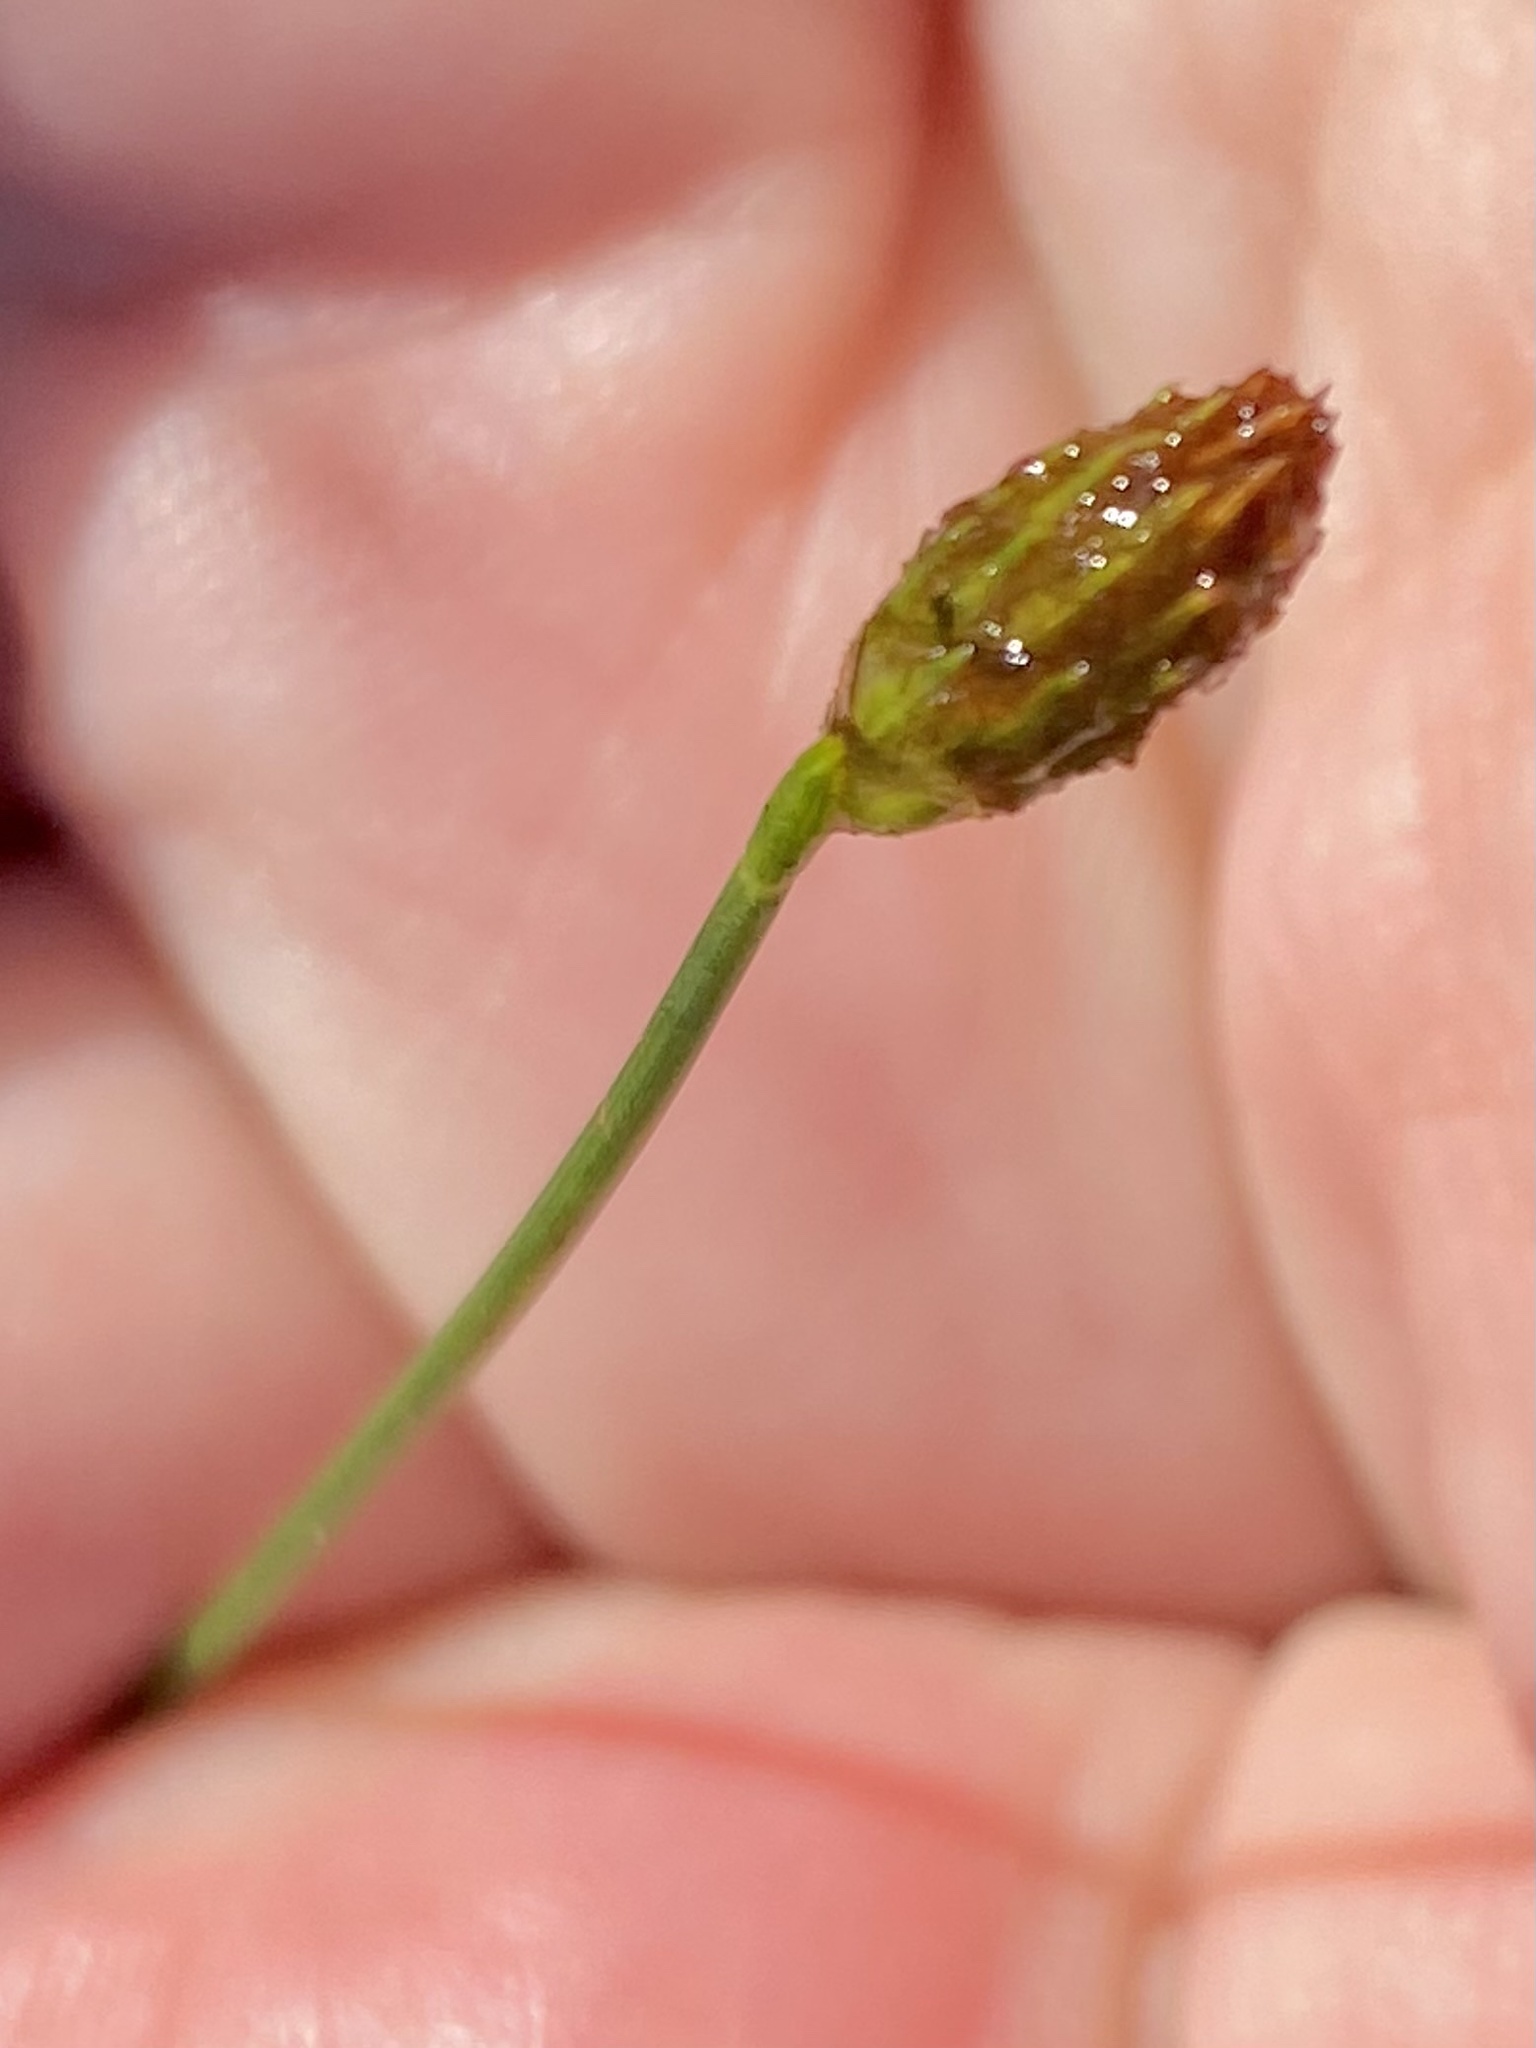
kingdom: Plantae
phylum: Tracheophyta
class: Liliopsida
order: Poales
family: Cyperaceae
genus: Fuirena
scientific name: Fuirena scirpoidea
